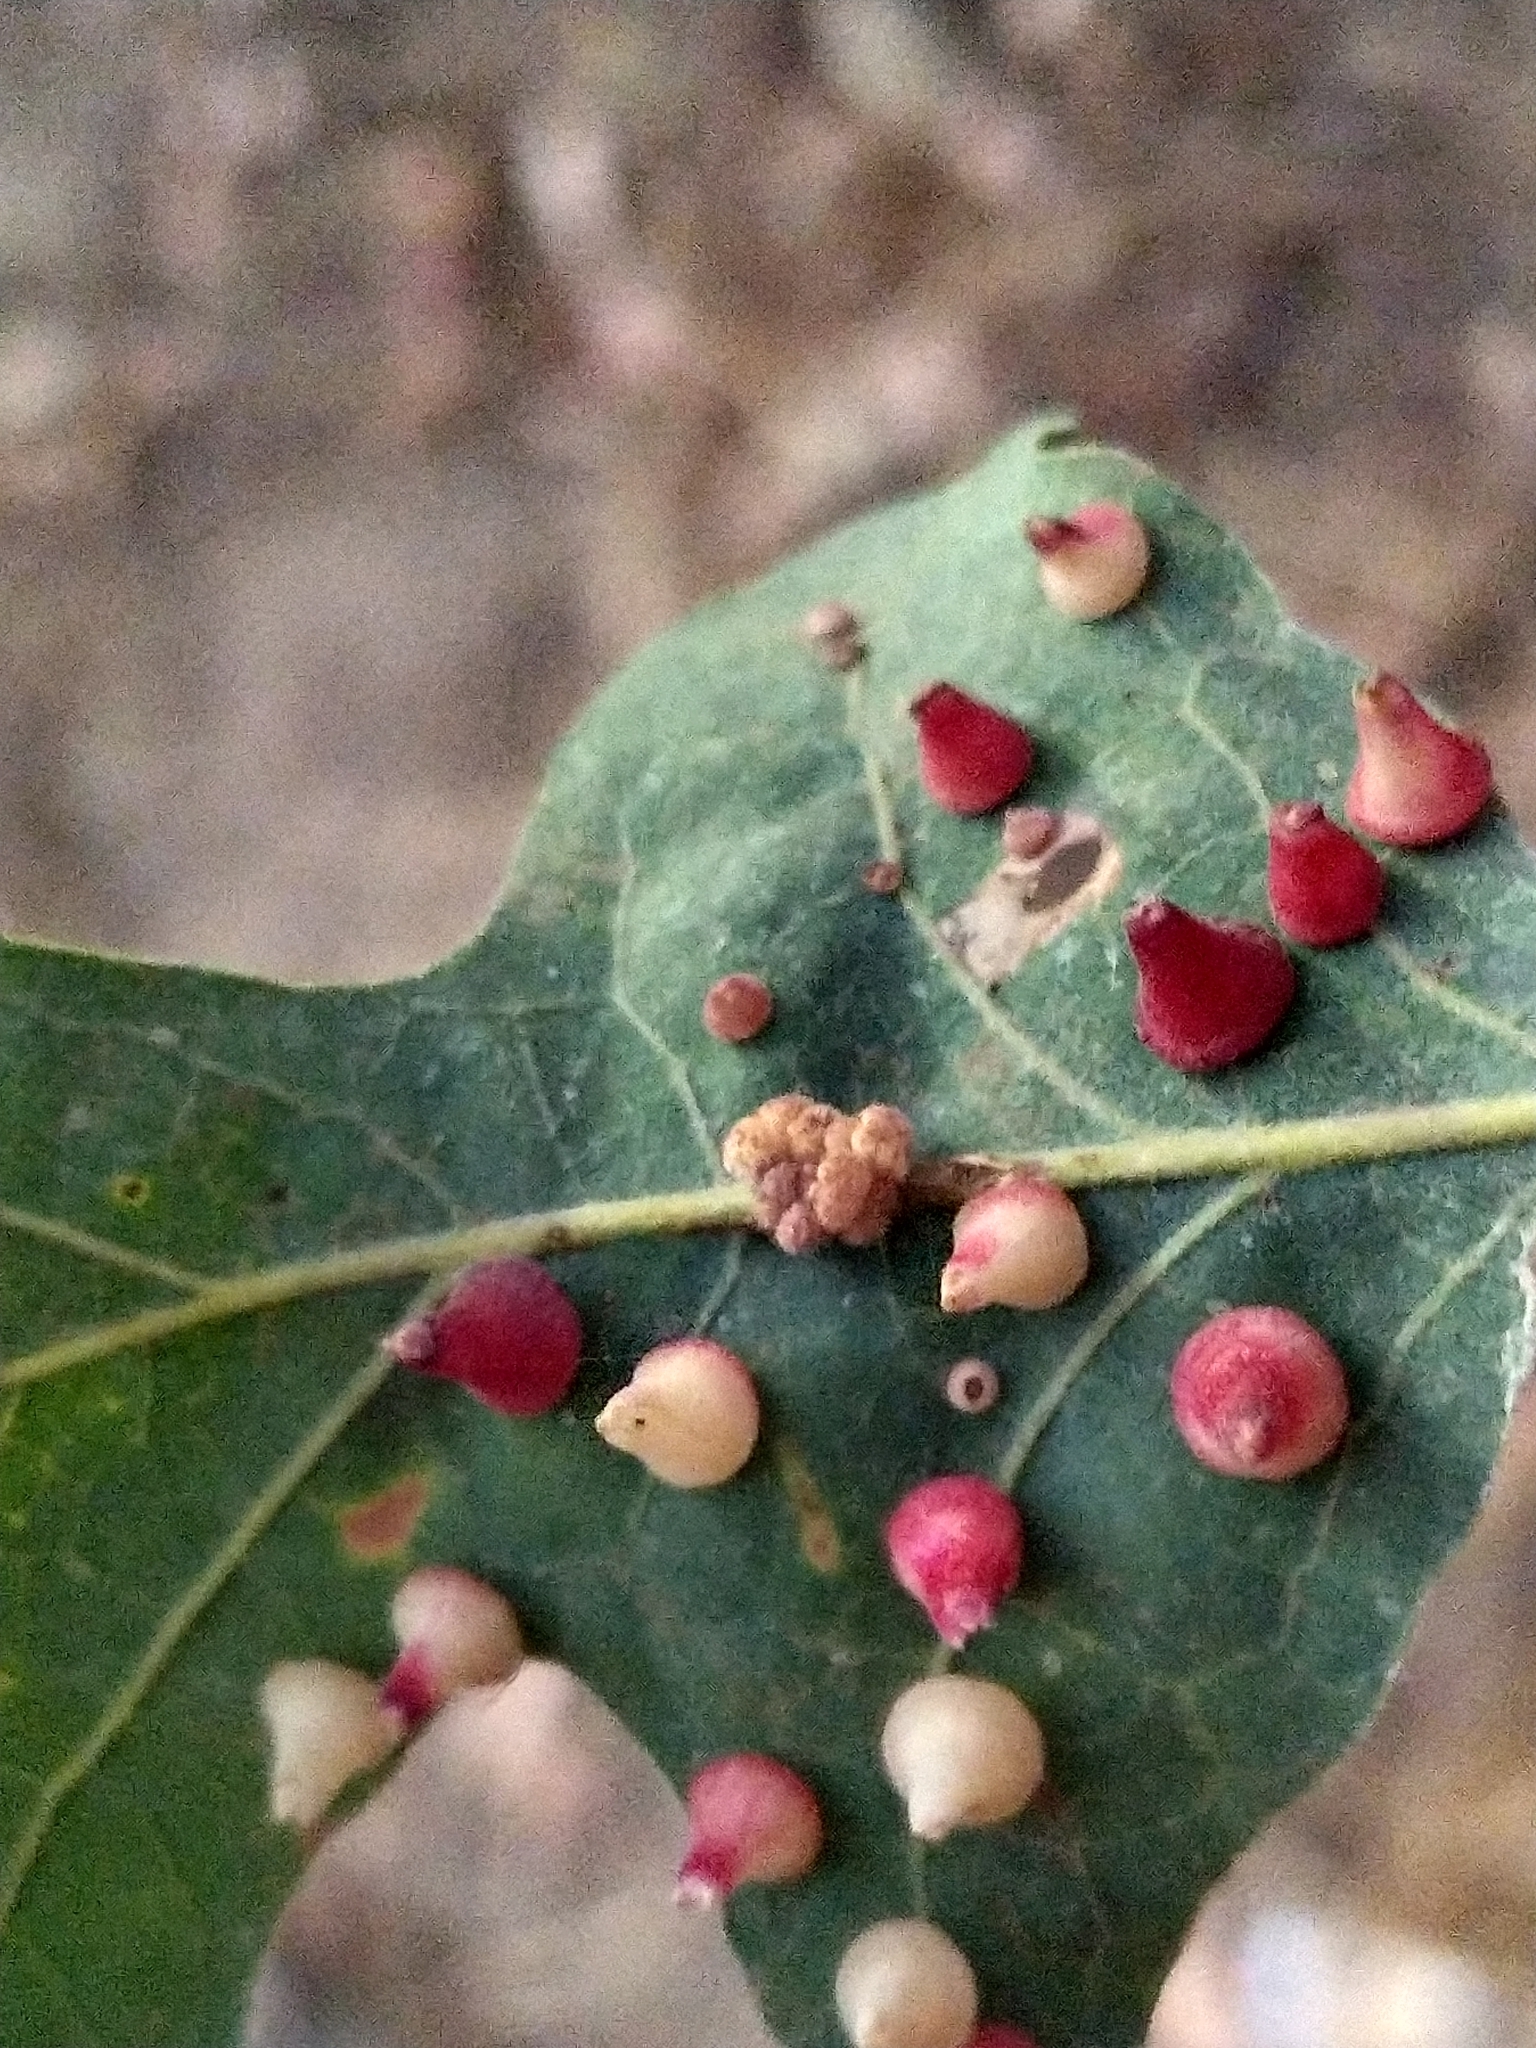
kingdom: Animalia
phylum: Arthropoda
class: Insecta
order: Hymenoptera
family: Cynipidae
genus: Andricus
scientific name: Andricus
